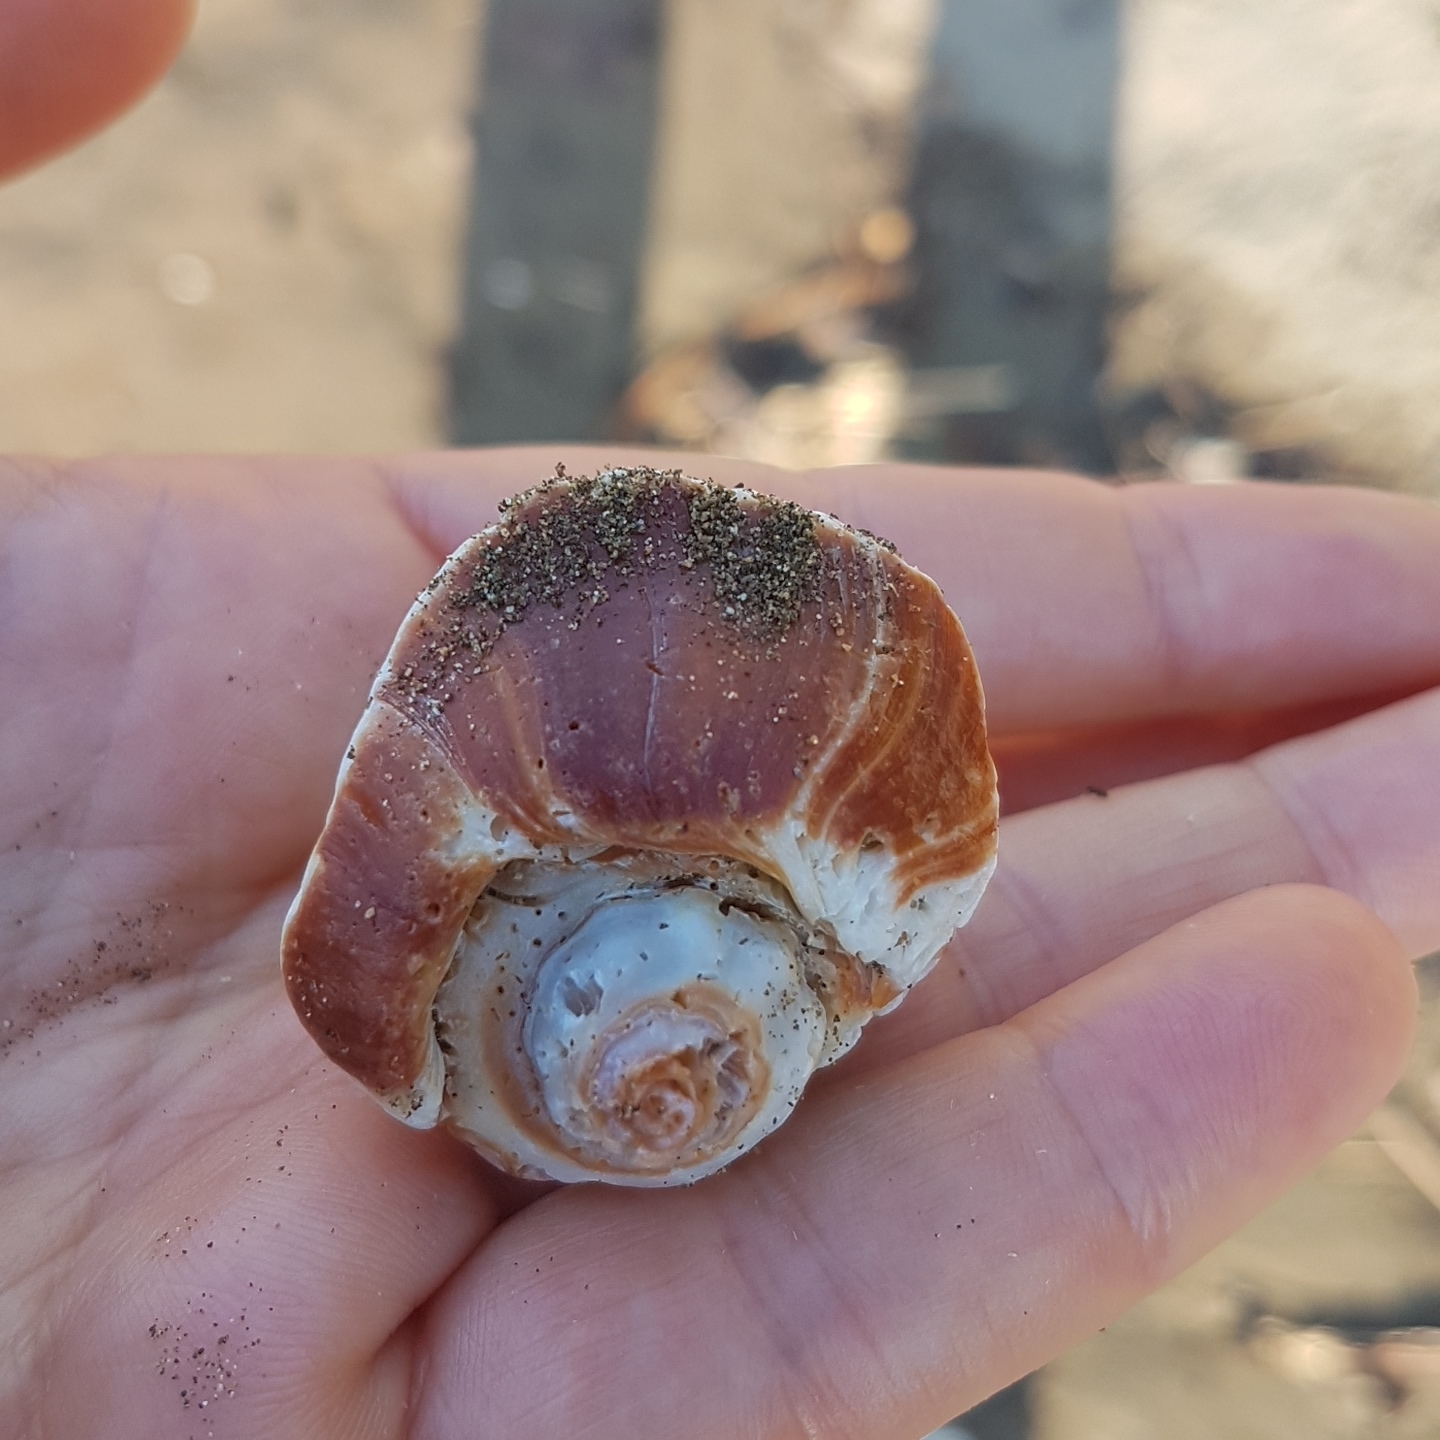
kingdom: Animalia
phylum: Mollusca
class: Gastropoda
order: Neogastropoda
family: Melongenidae
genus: Melongena
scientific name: Melongena patula
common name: Pacific crown conch
